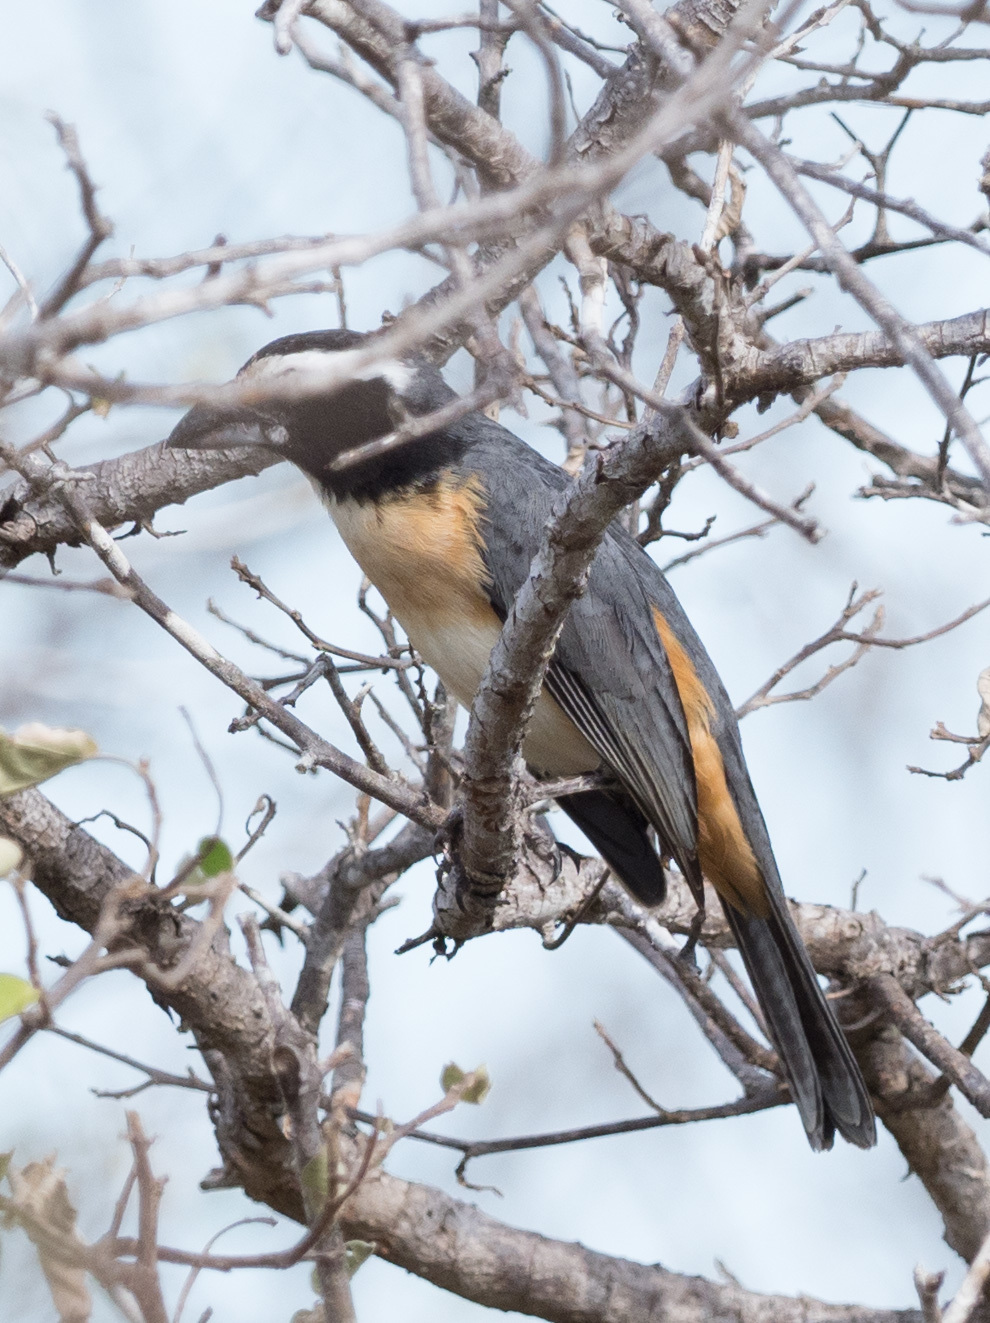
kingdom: Animalia
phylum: Chordata
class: Aves
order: Passeriformes
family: Thraupidae
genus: Saltator
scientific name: Saltator orenocensis
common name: Orinoco saltator
